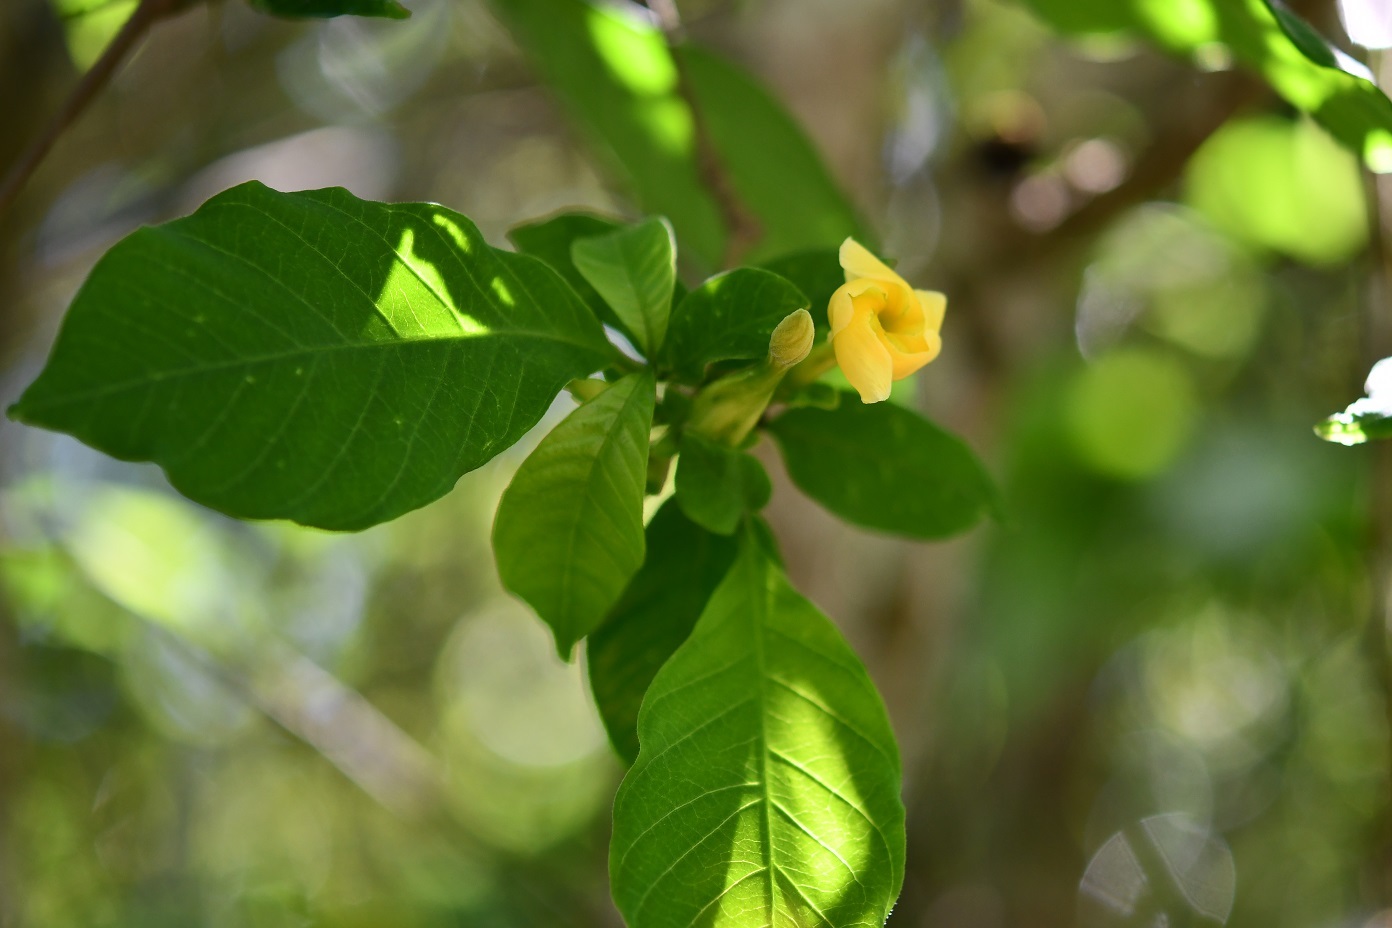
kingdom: Plantae
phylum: Tracheophyta
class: Magnoliopsida
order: Gentianales
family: Apocynaceae
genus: Tabernaemontana
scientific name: Tabernaemontana hannae
